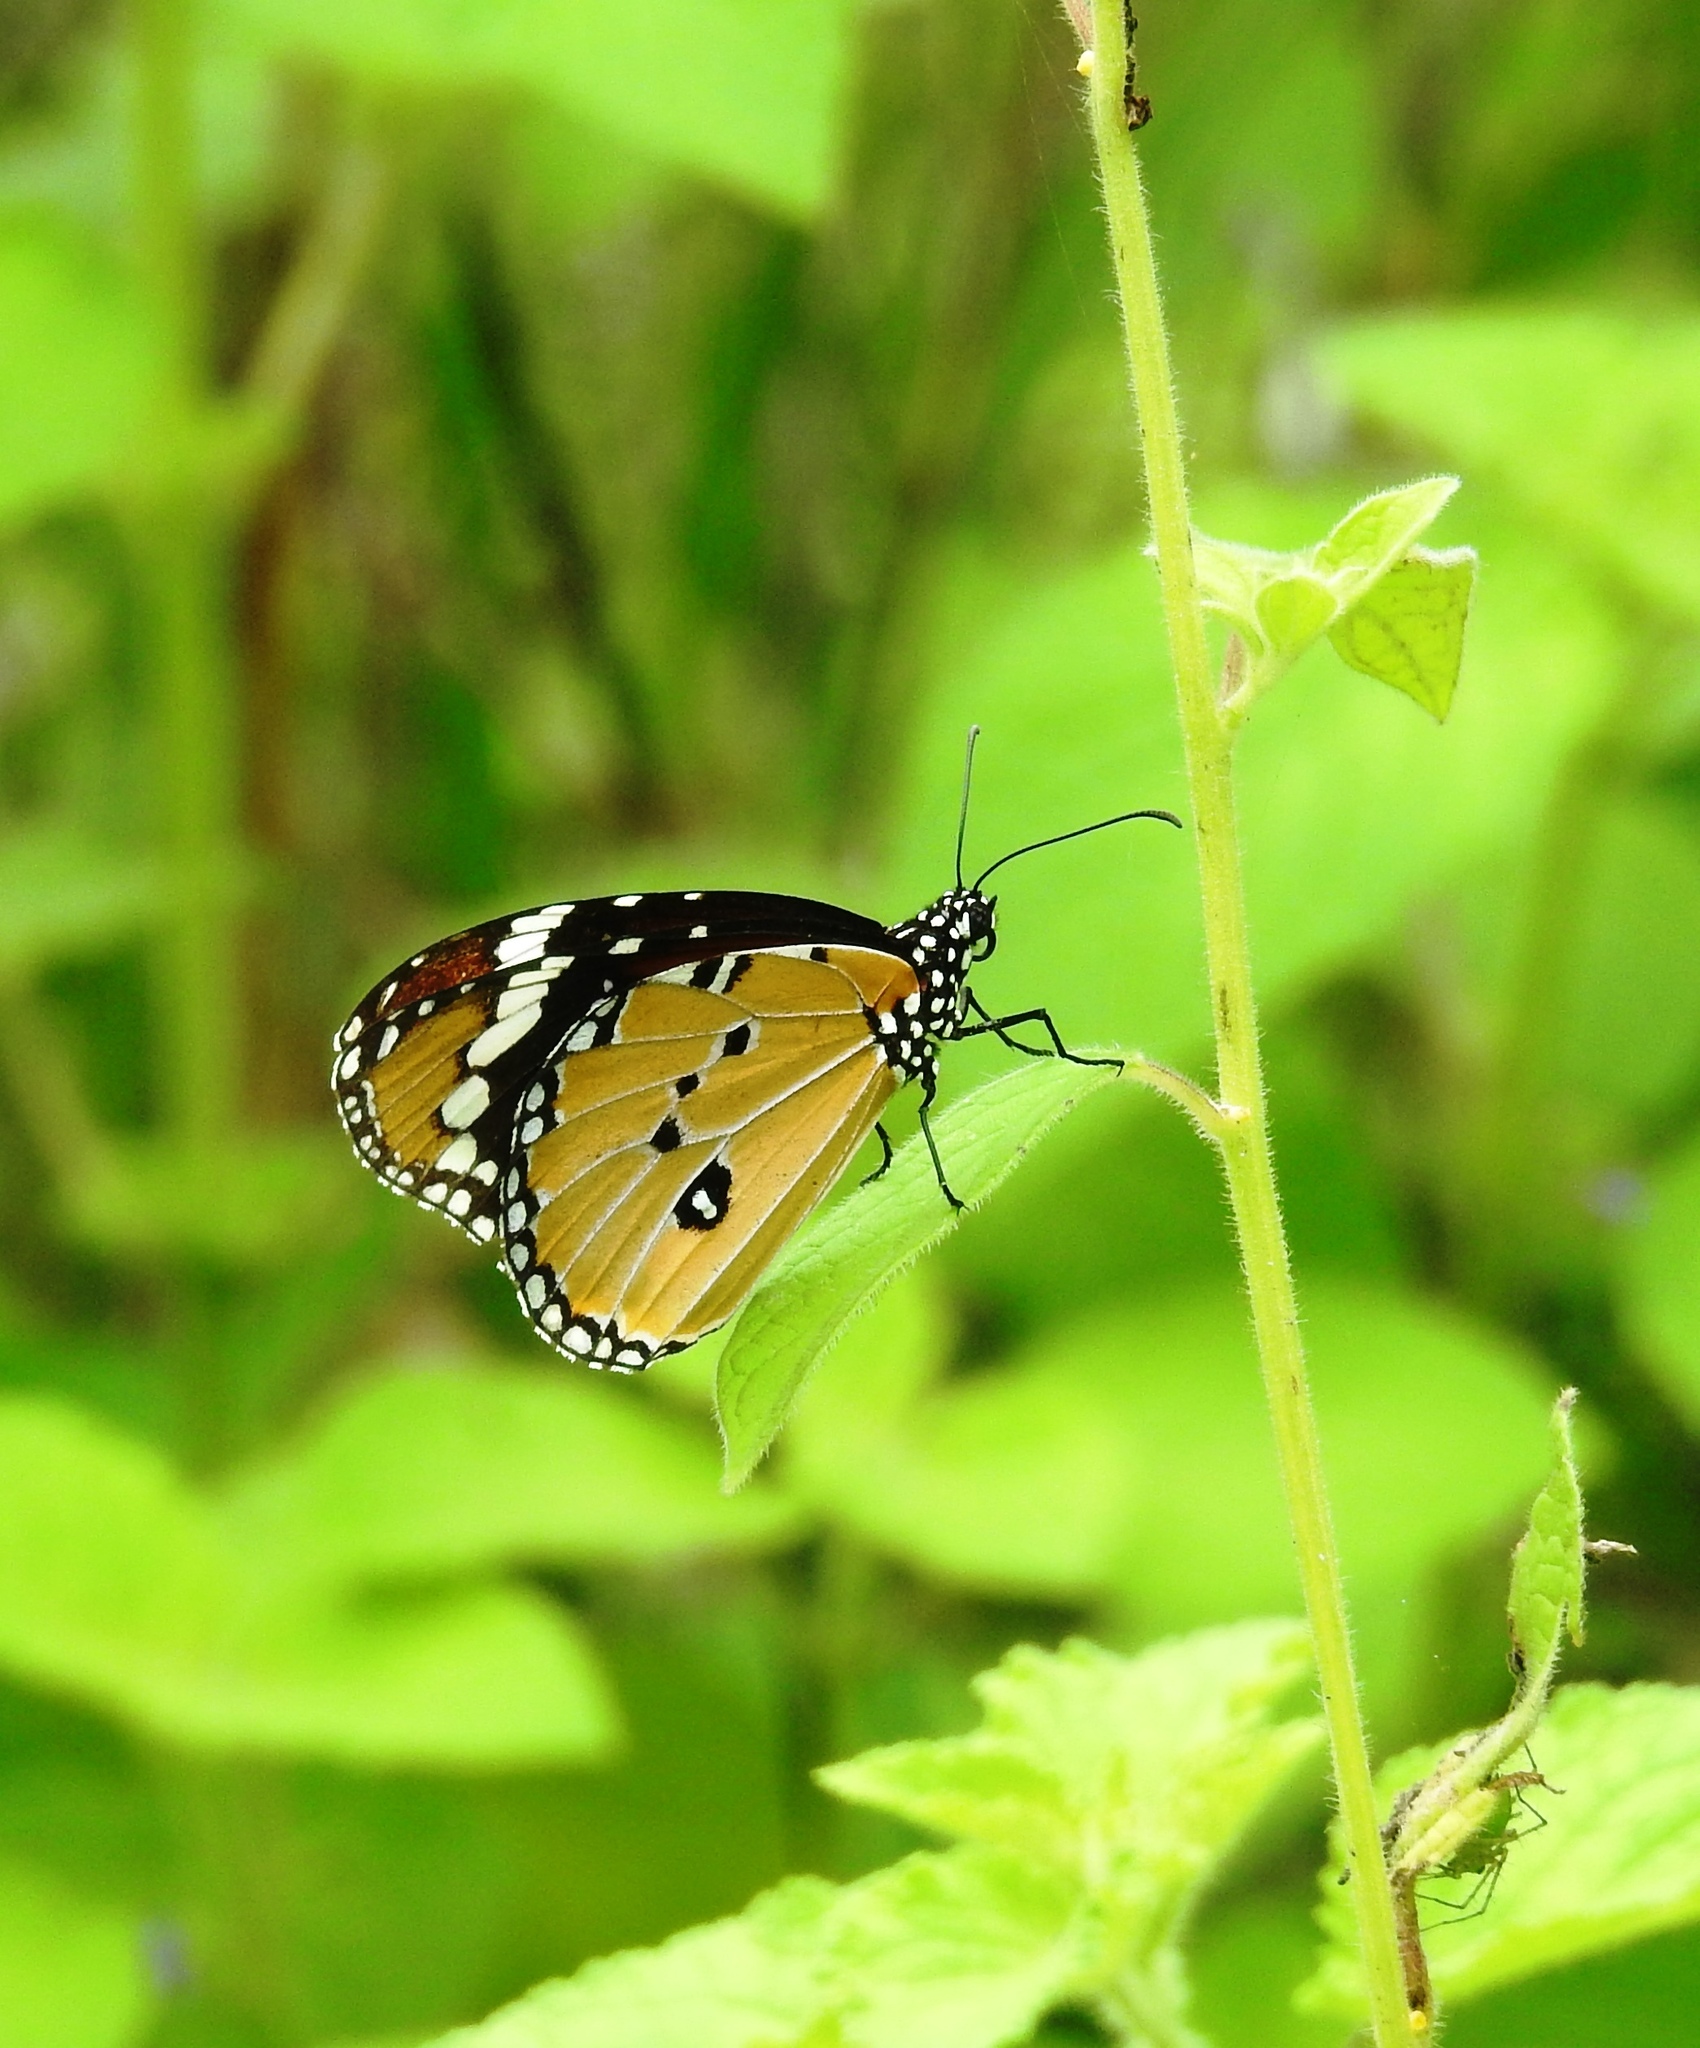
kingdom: Animalia
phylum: Arthropoda
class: Insecta
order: Lepidoptera
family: Nymphalidae
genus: Danaus
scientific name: Danaus chrysippus
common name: Plain tiger
